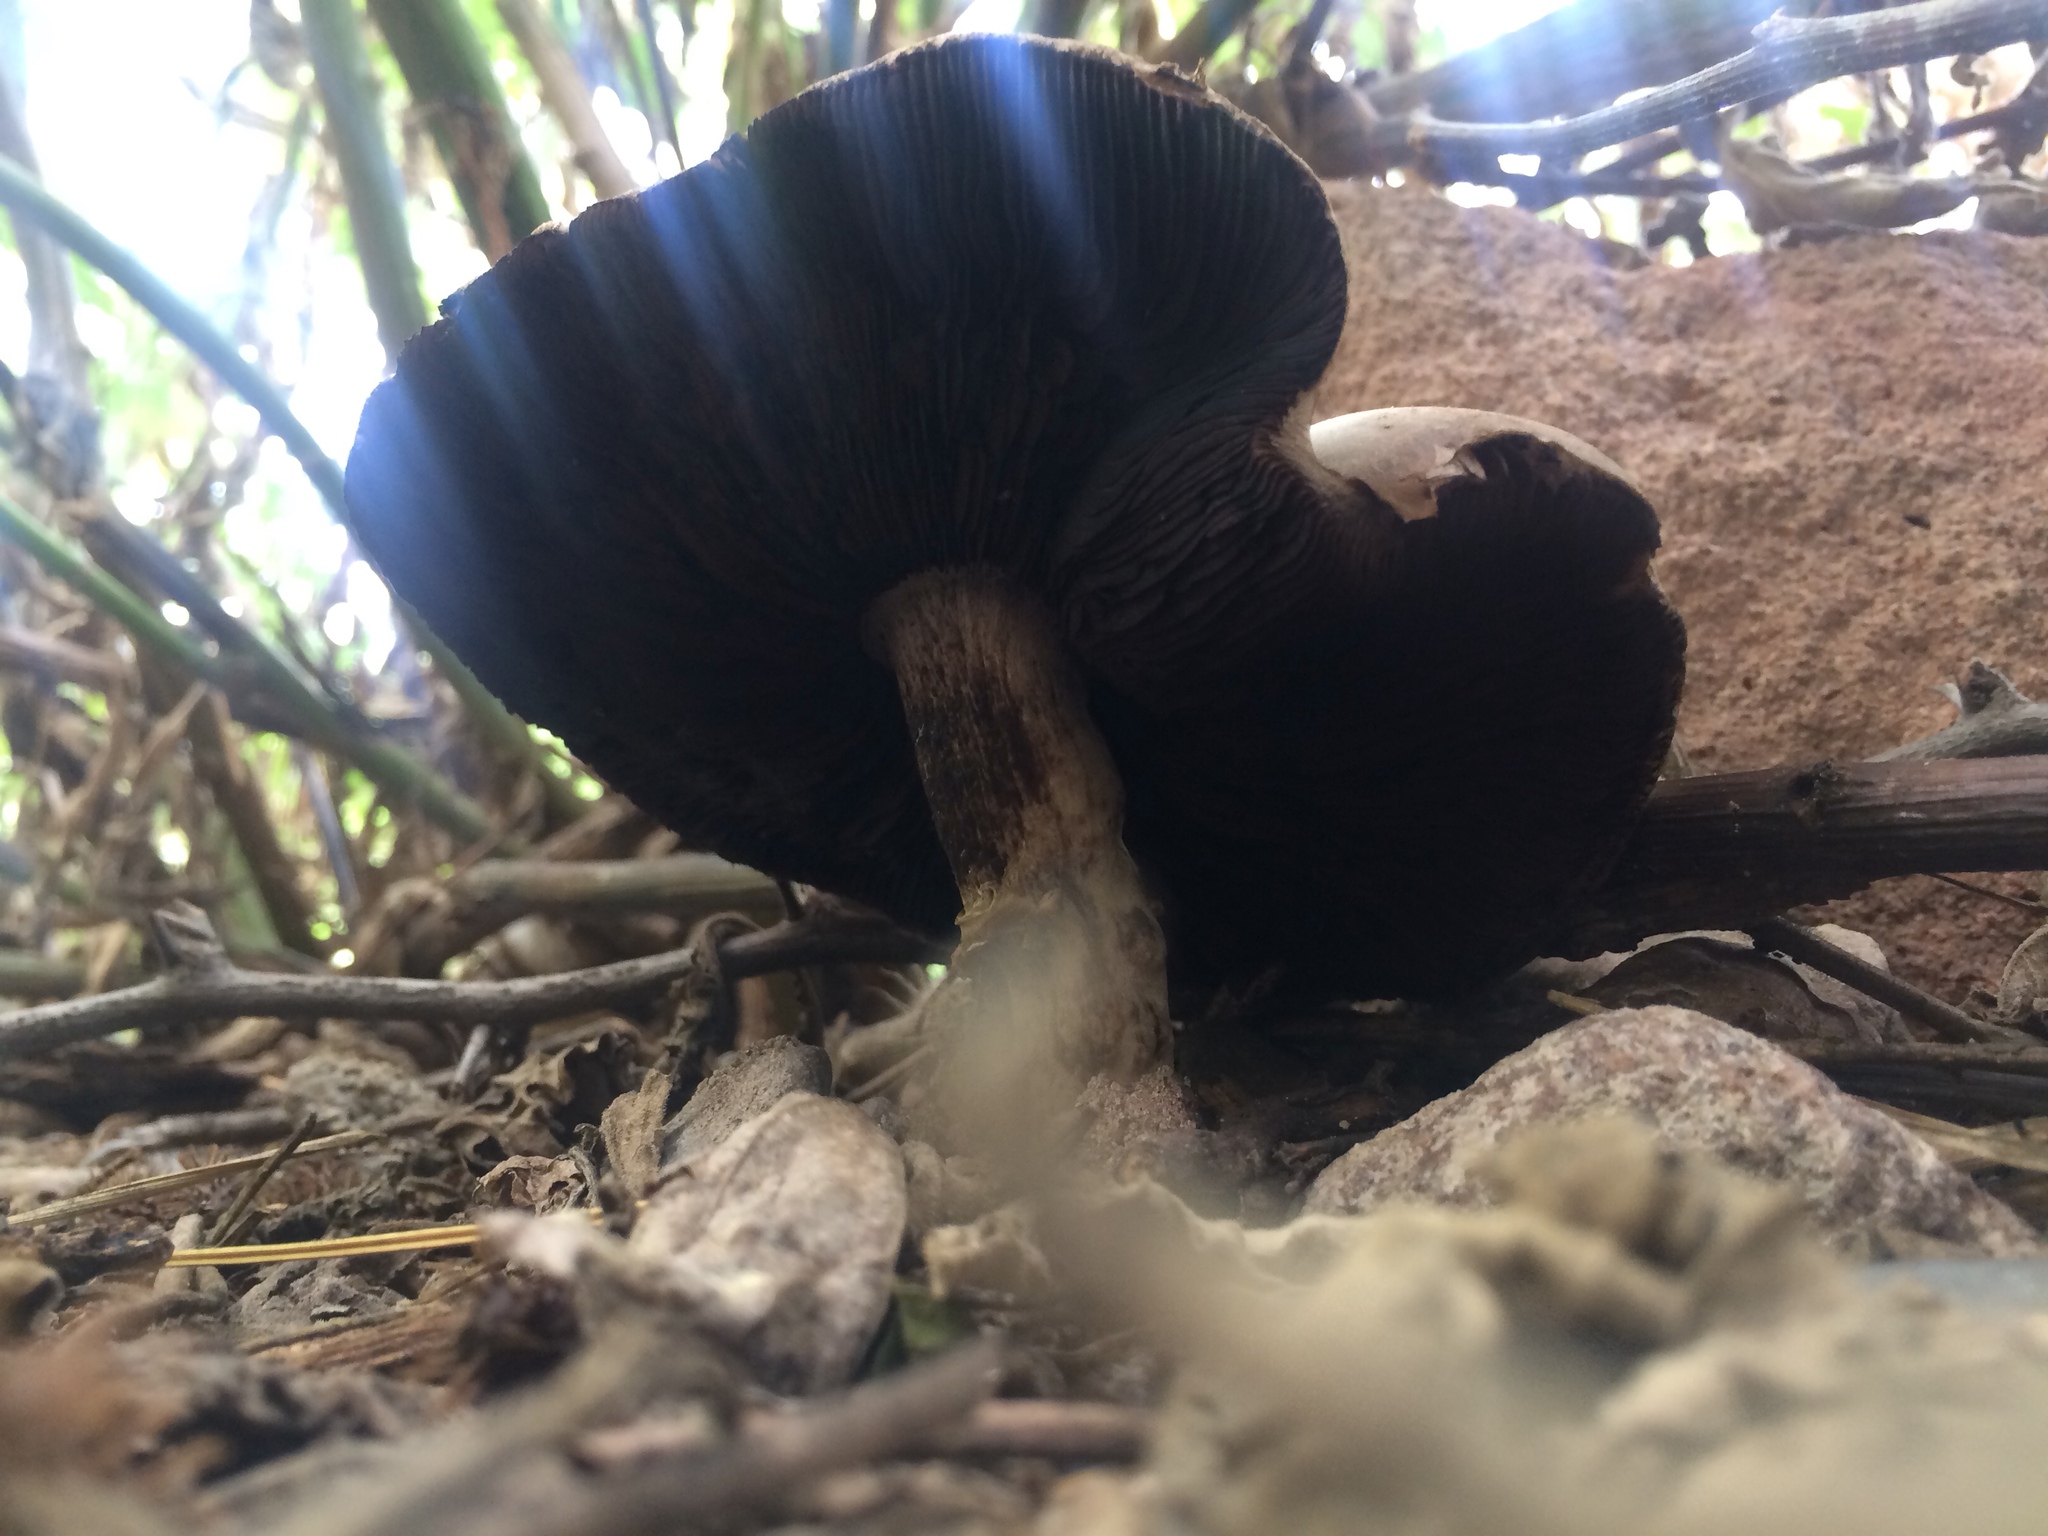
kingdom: Fungi
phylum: Basidiomycota
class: Agaricomycetes
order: Agaricales
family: Agaricaceae
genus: Agaricus
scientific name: Agaricus xanthodermus
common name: Yellow stainer
